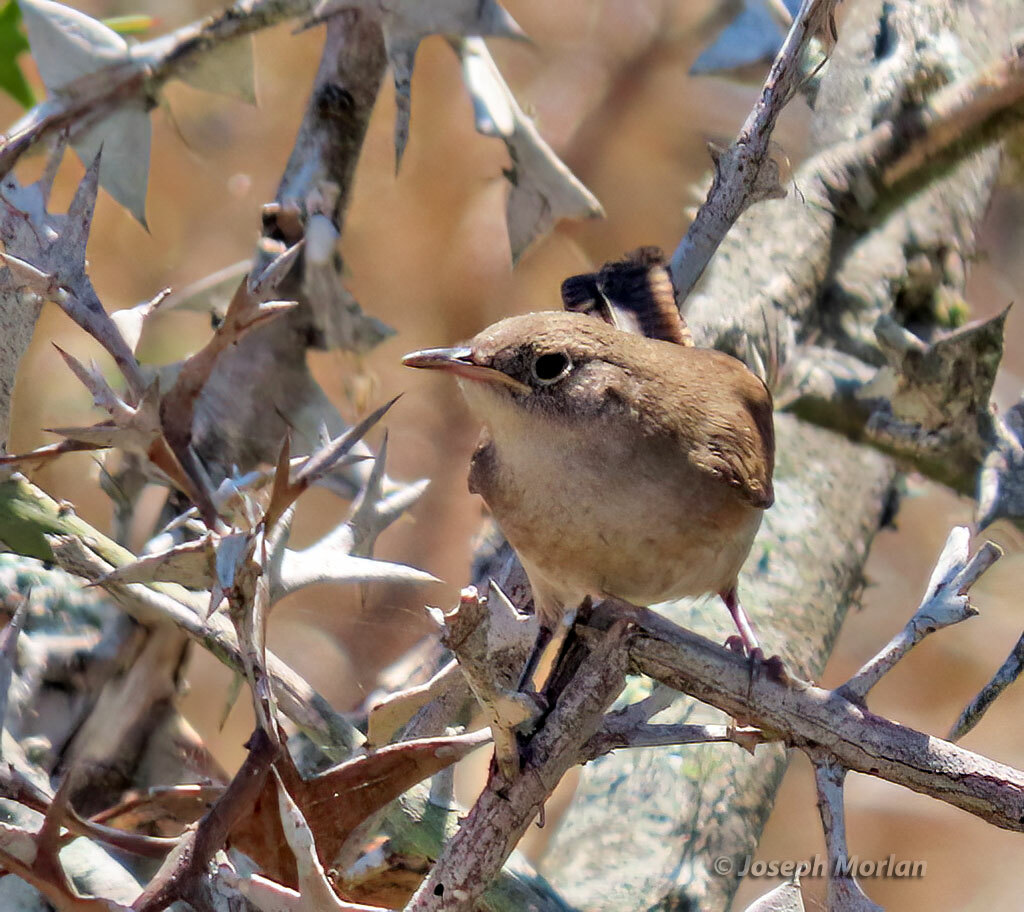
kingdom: Animalia
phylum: Chordata
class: Aves
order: Passeriformes
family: Troglodytidae
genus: Troglodytes
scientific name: Troglodytes aedon
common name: House wren
